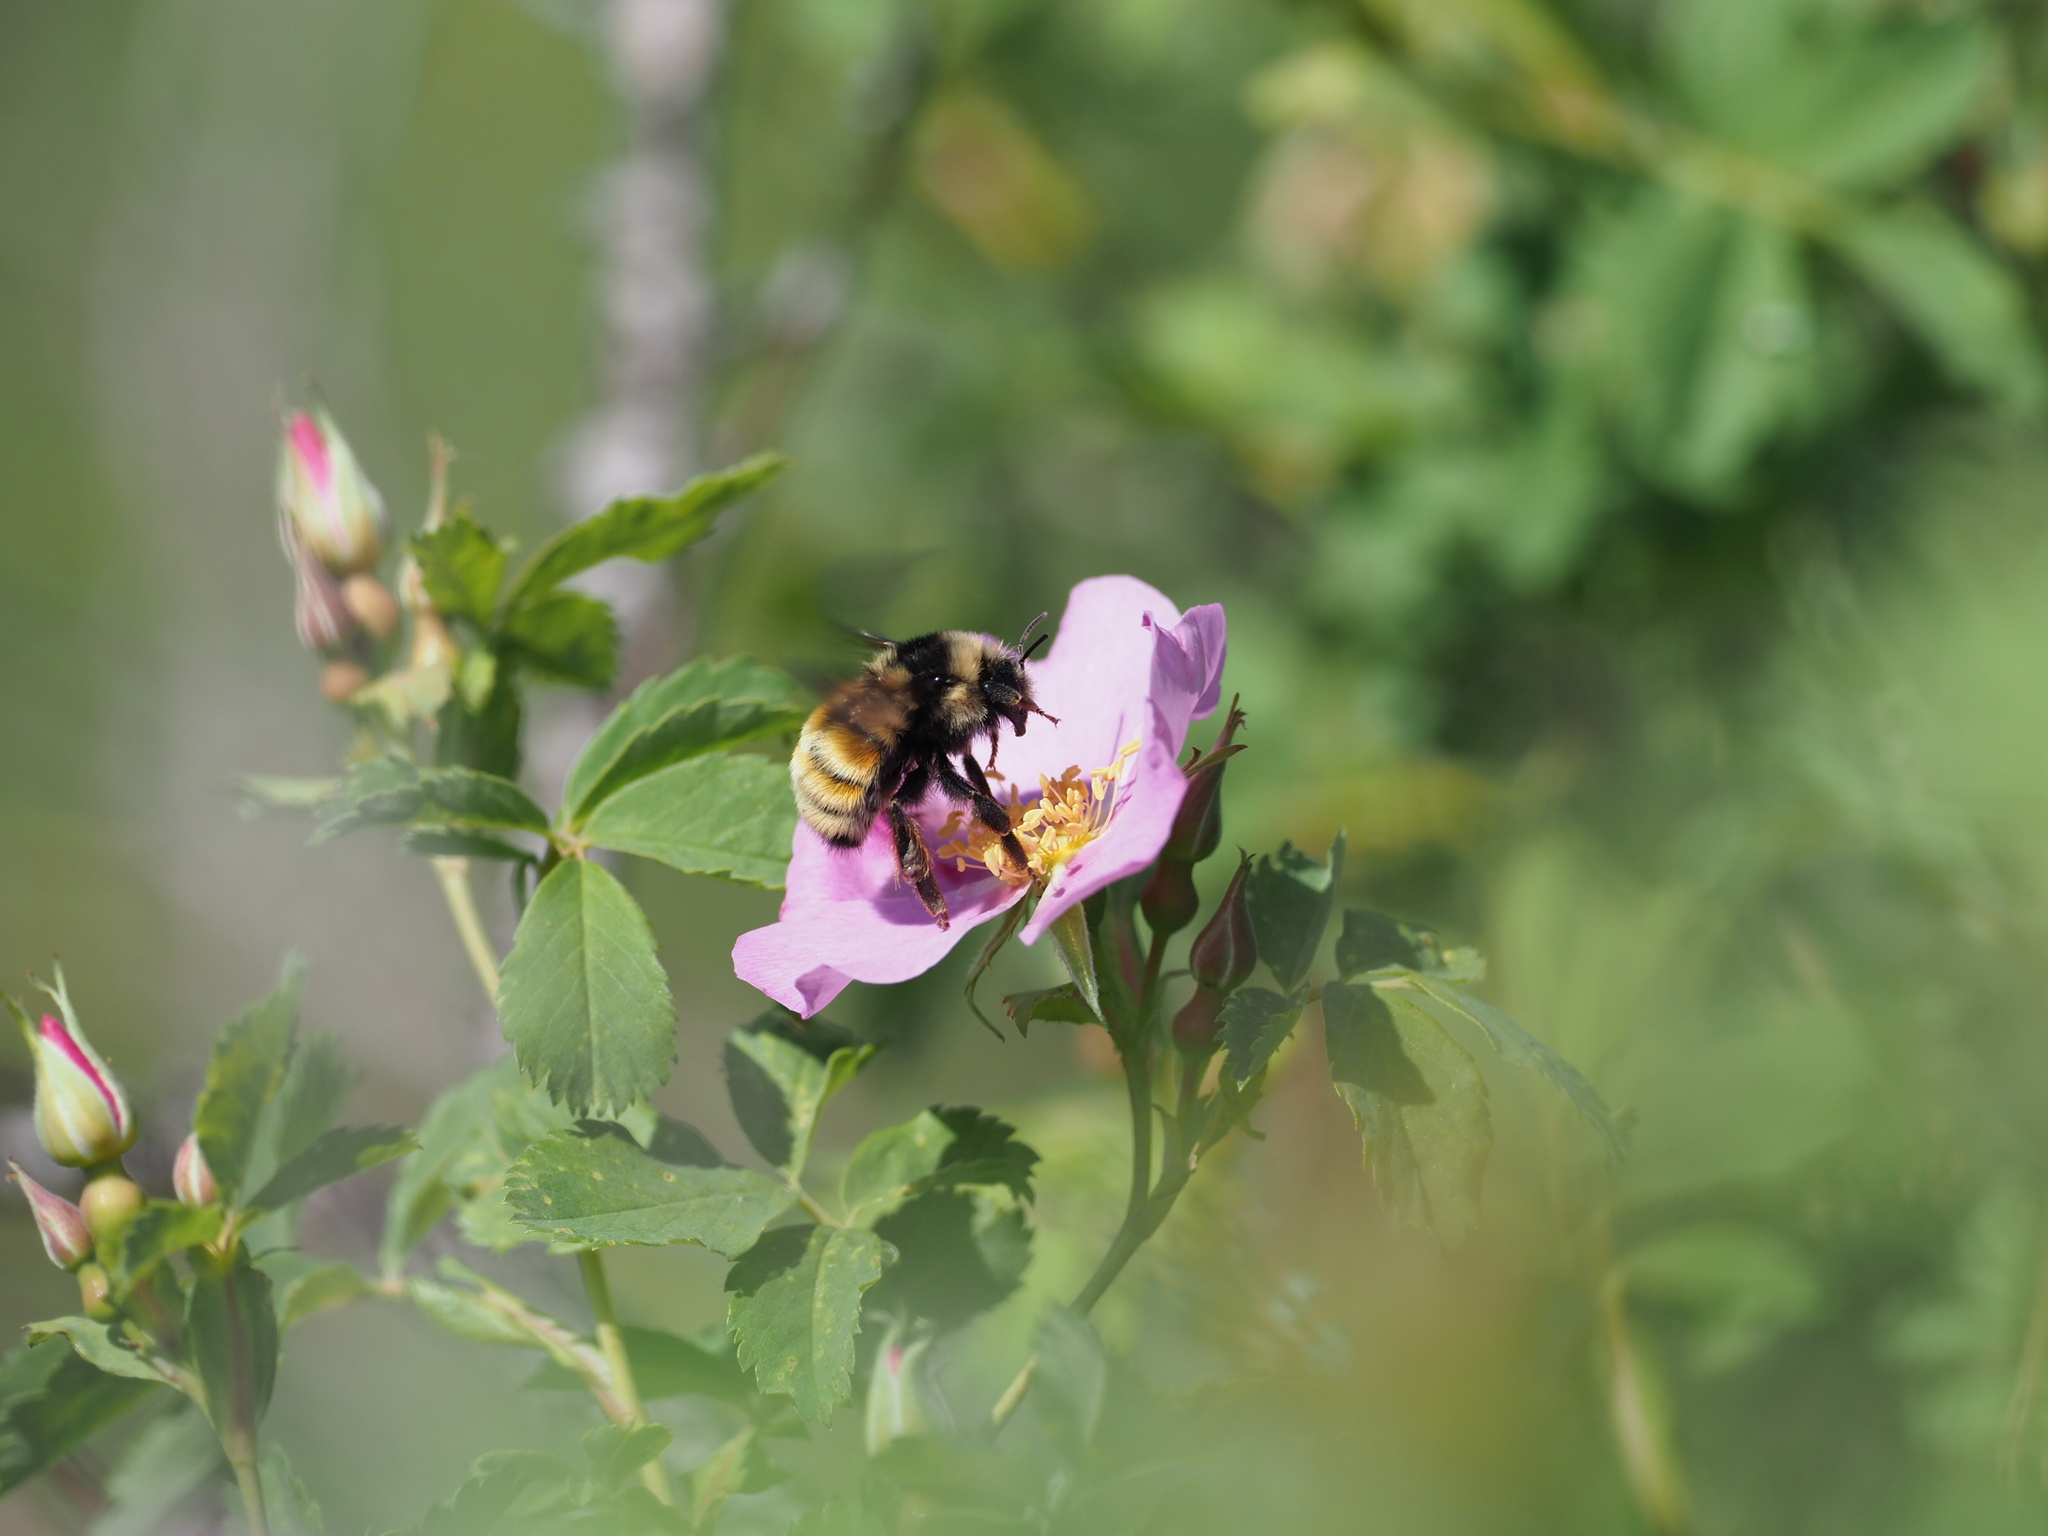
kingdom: Animalia
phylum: Arthropoda
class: Insecta
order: Hymenoptera
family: Apidae
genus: Bombus
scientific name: Bombus vancouverensis
